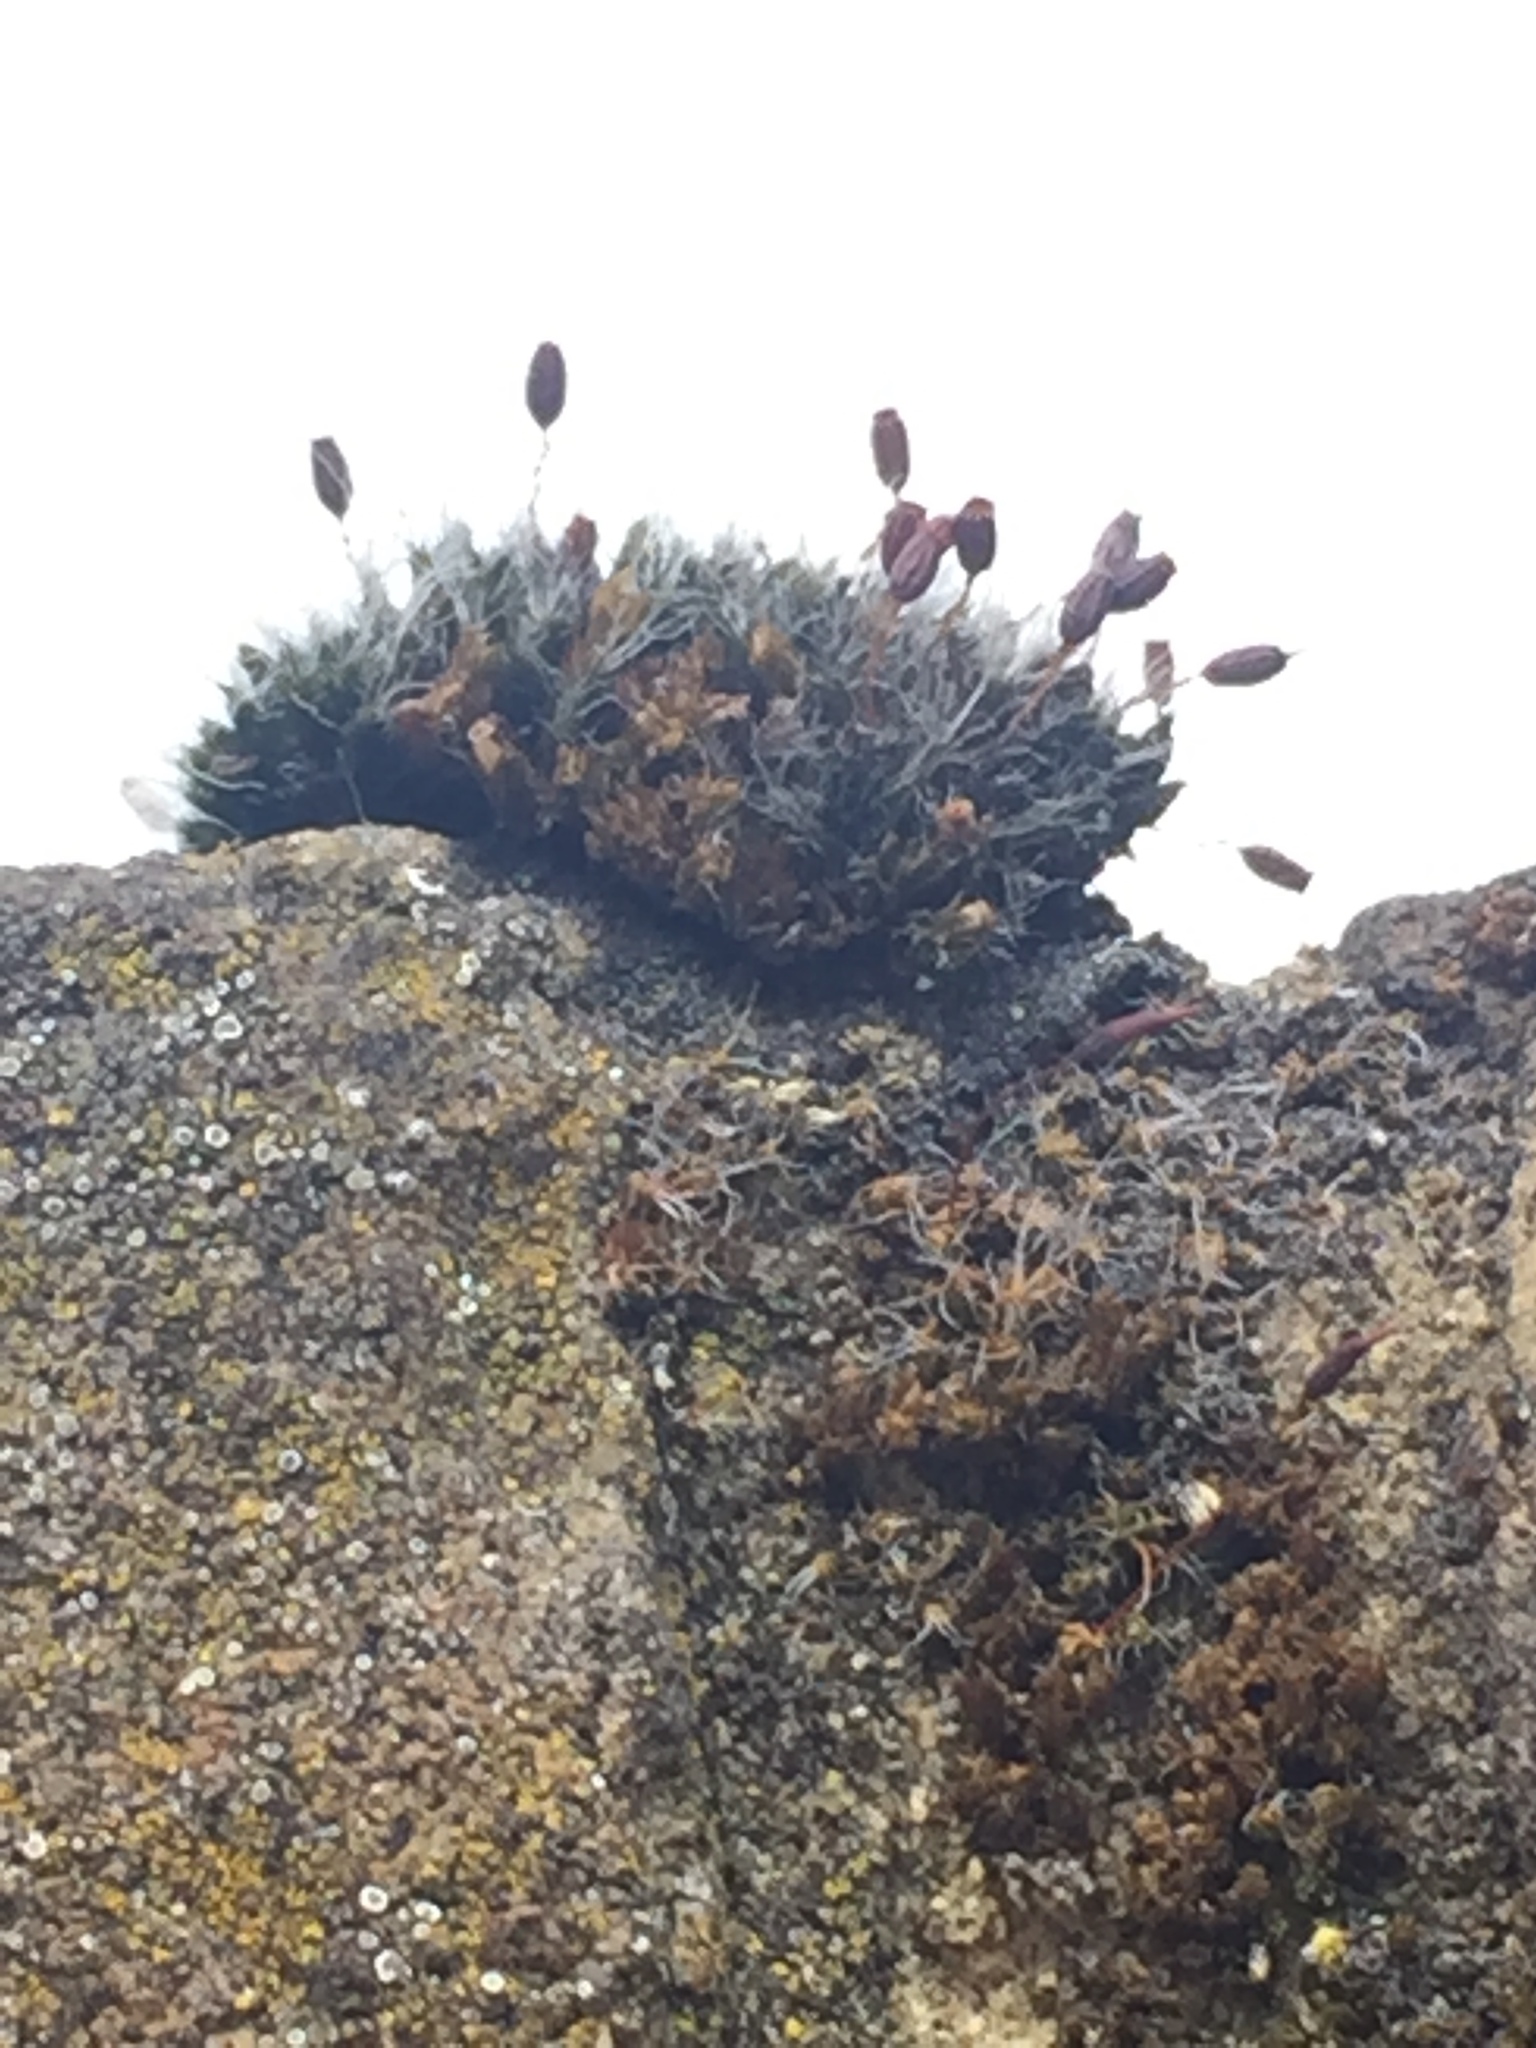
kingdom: Plantae
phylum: Bryophyta
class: Bryopsida
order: Grimmiales
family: Grimmiaceae
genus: Grimmia
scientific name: Grimmia pulvinata
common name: Grey-cushioned grimmia
